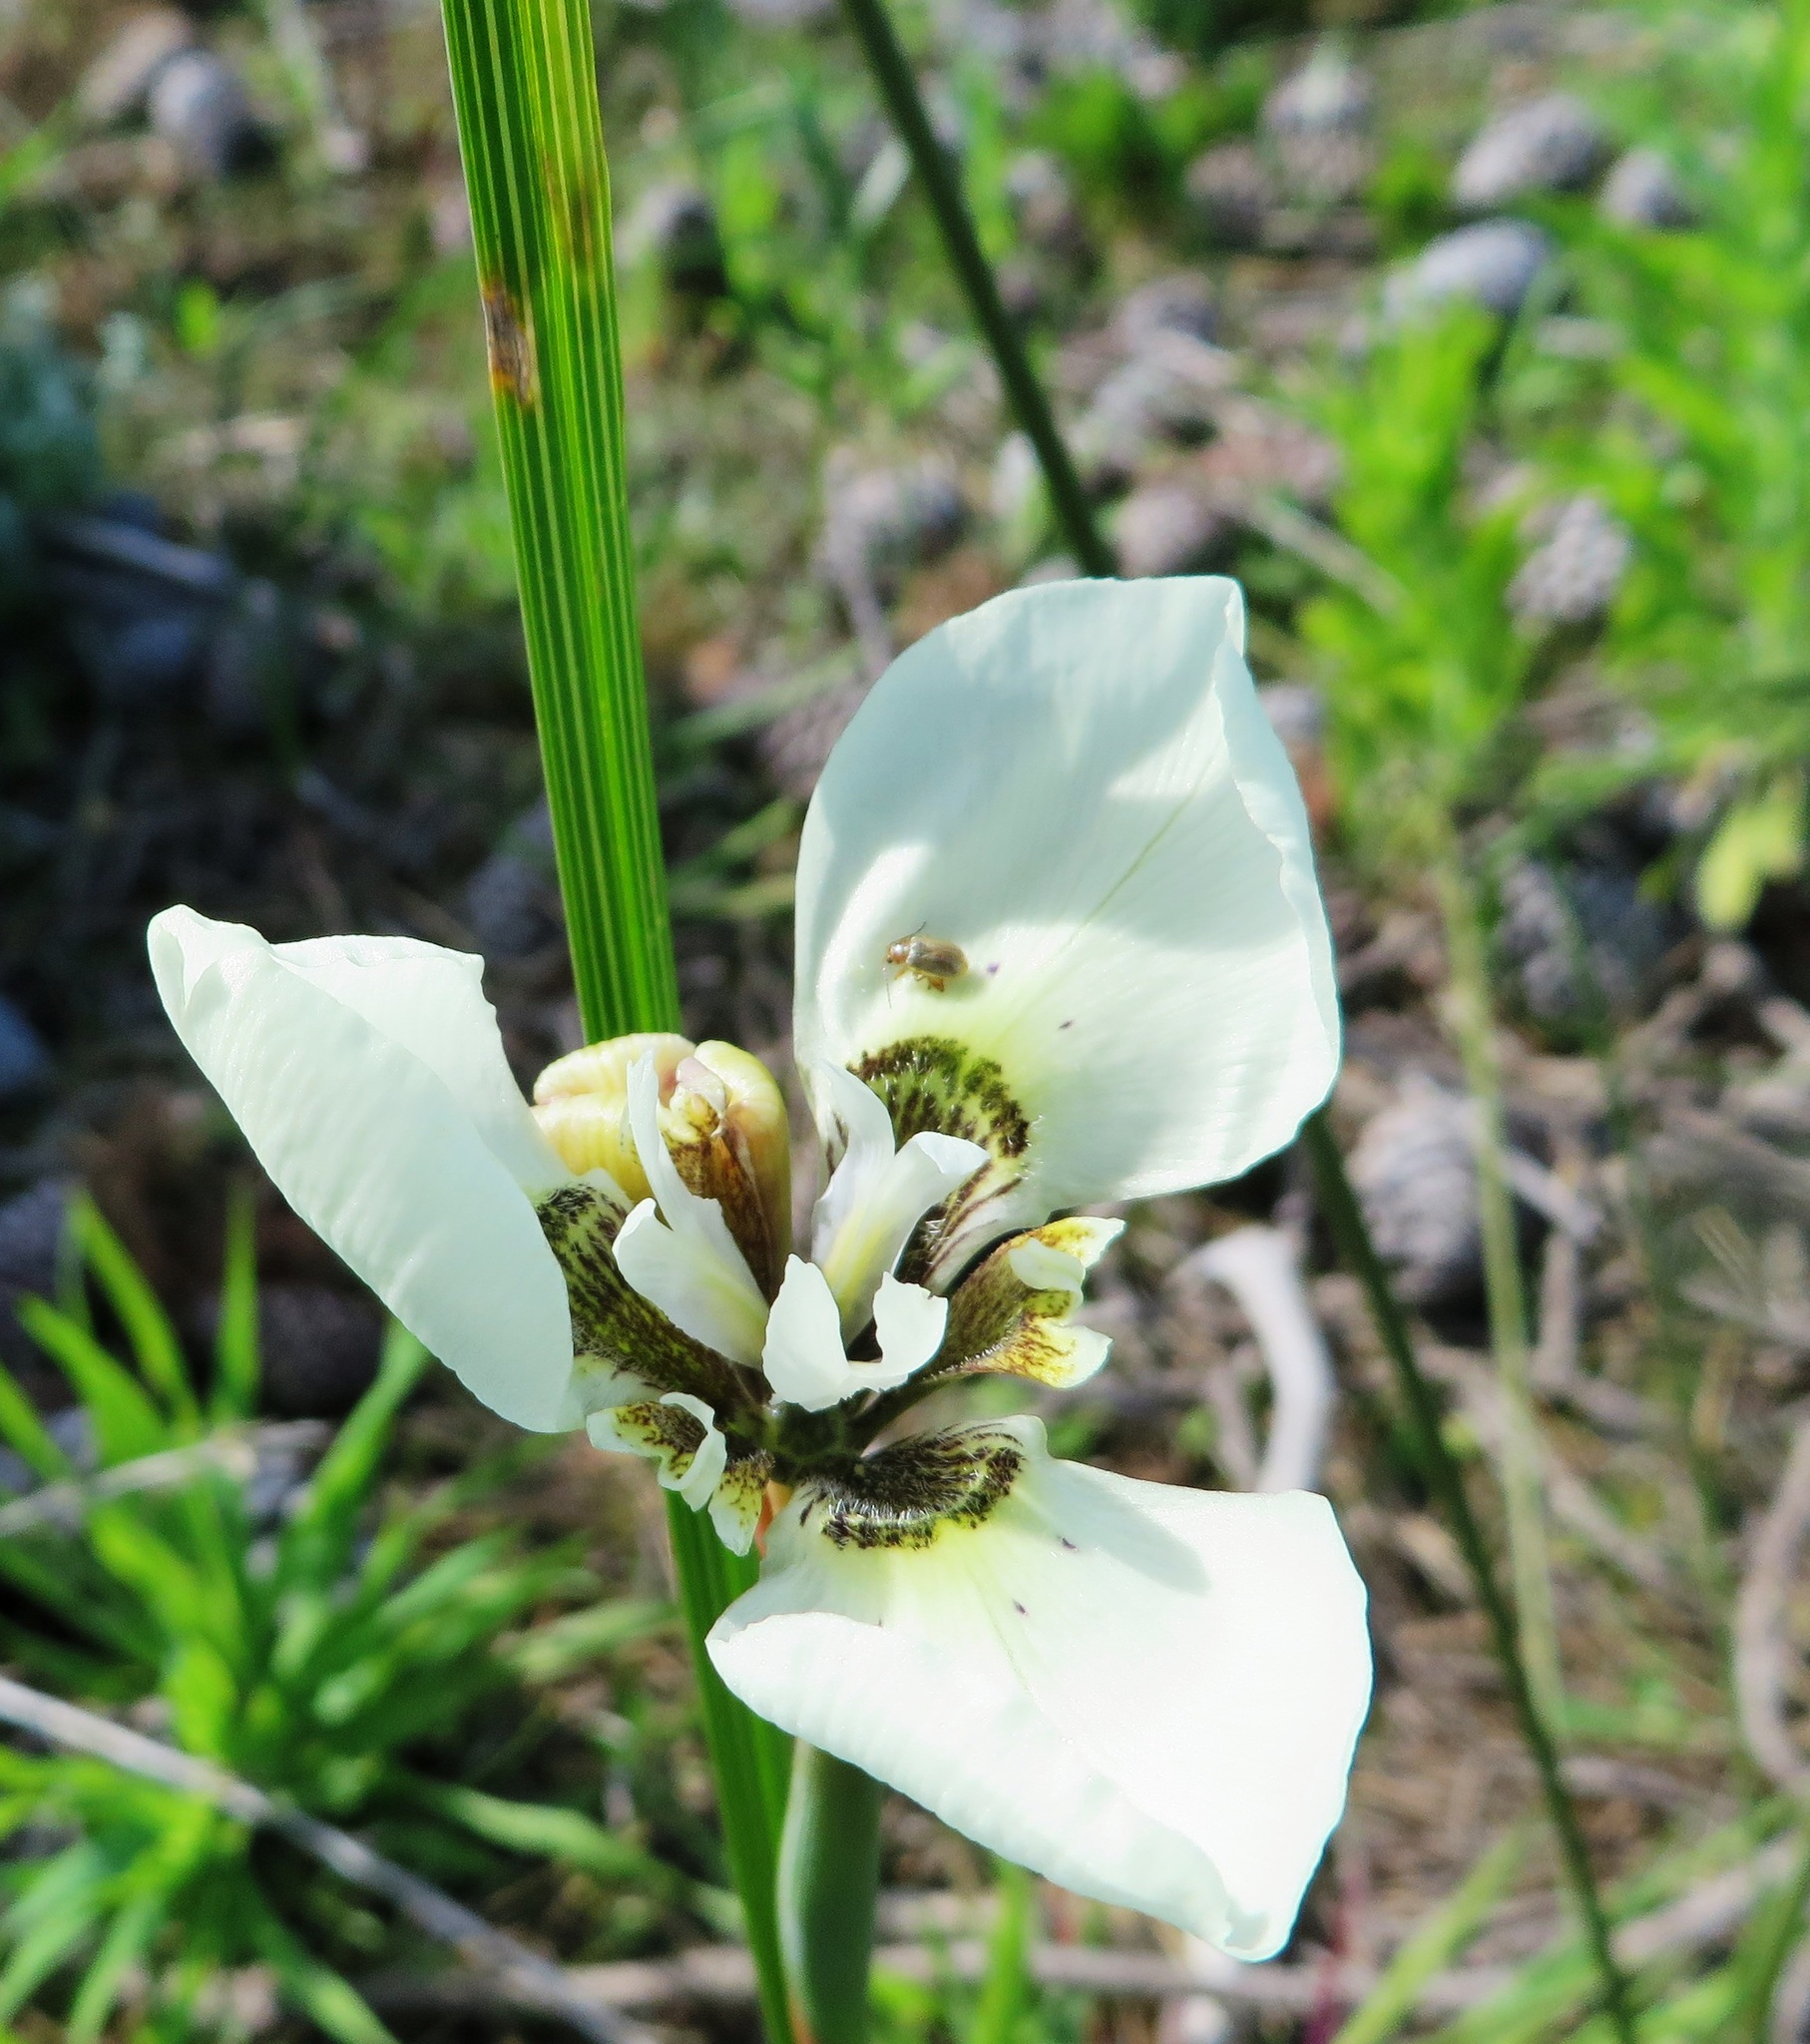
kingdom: Plantae
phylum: Tracheophyta
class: Liliopsida
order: Asparagales
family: Iridaceae
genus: Moraea
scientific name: Moraea tricuspidata
